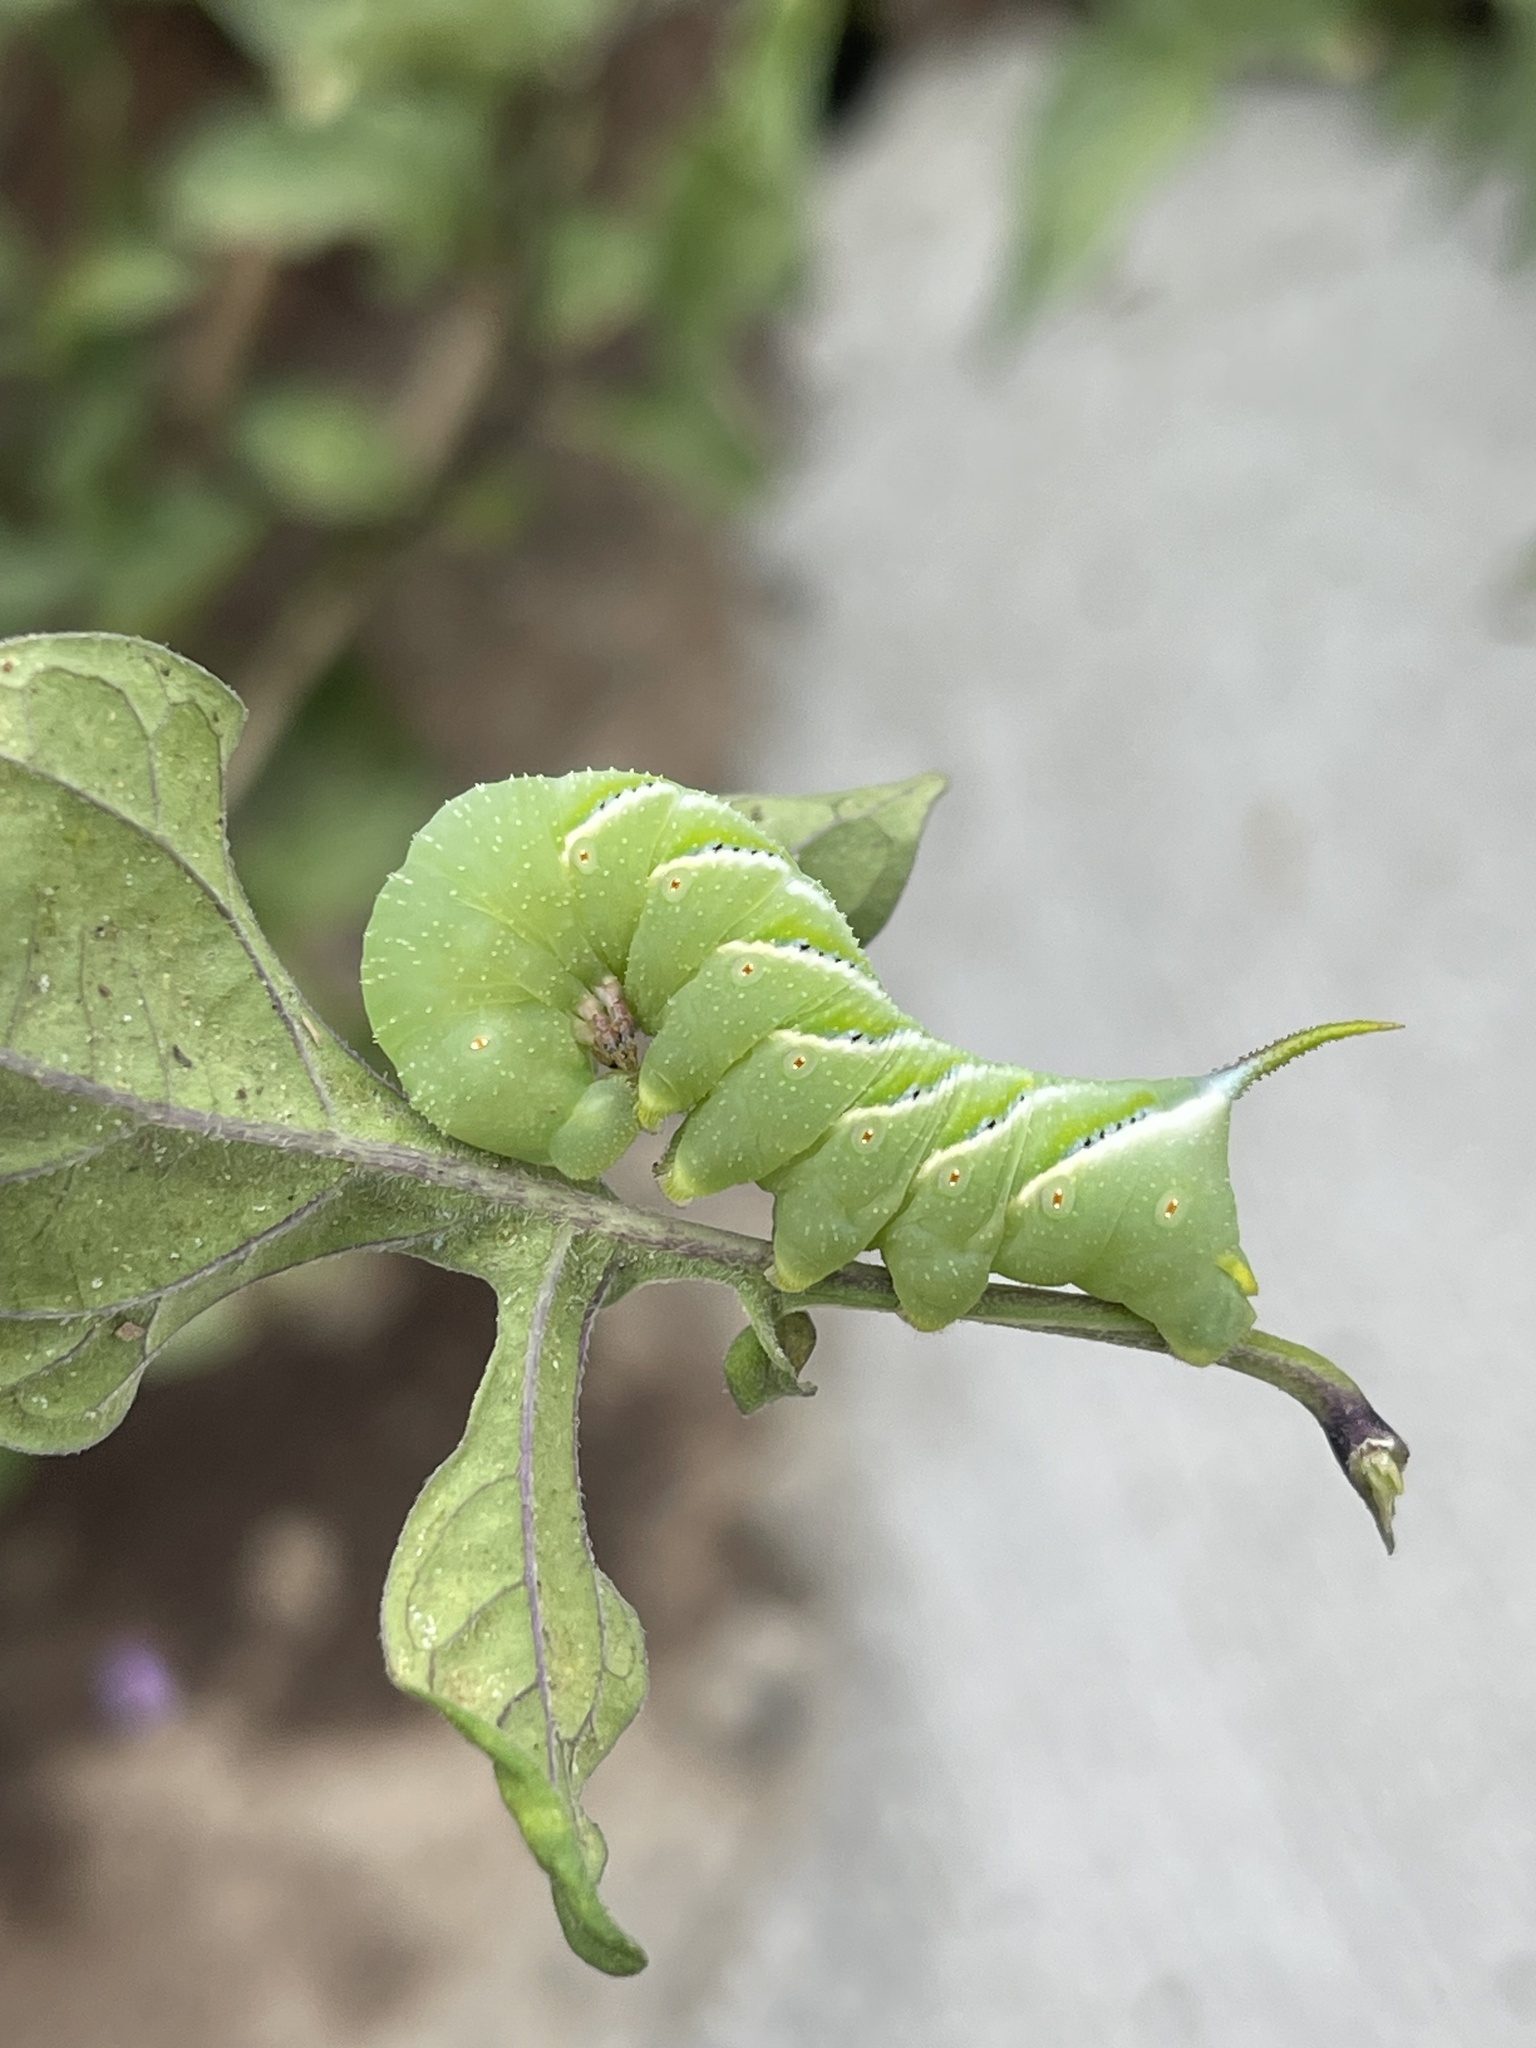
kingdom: Animalia
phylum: Arthropoda
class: Insecta
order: Lepidoptera
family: Sphingidae
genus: Manduca
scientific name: Manduca sexta
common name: Carolina sphinx
